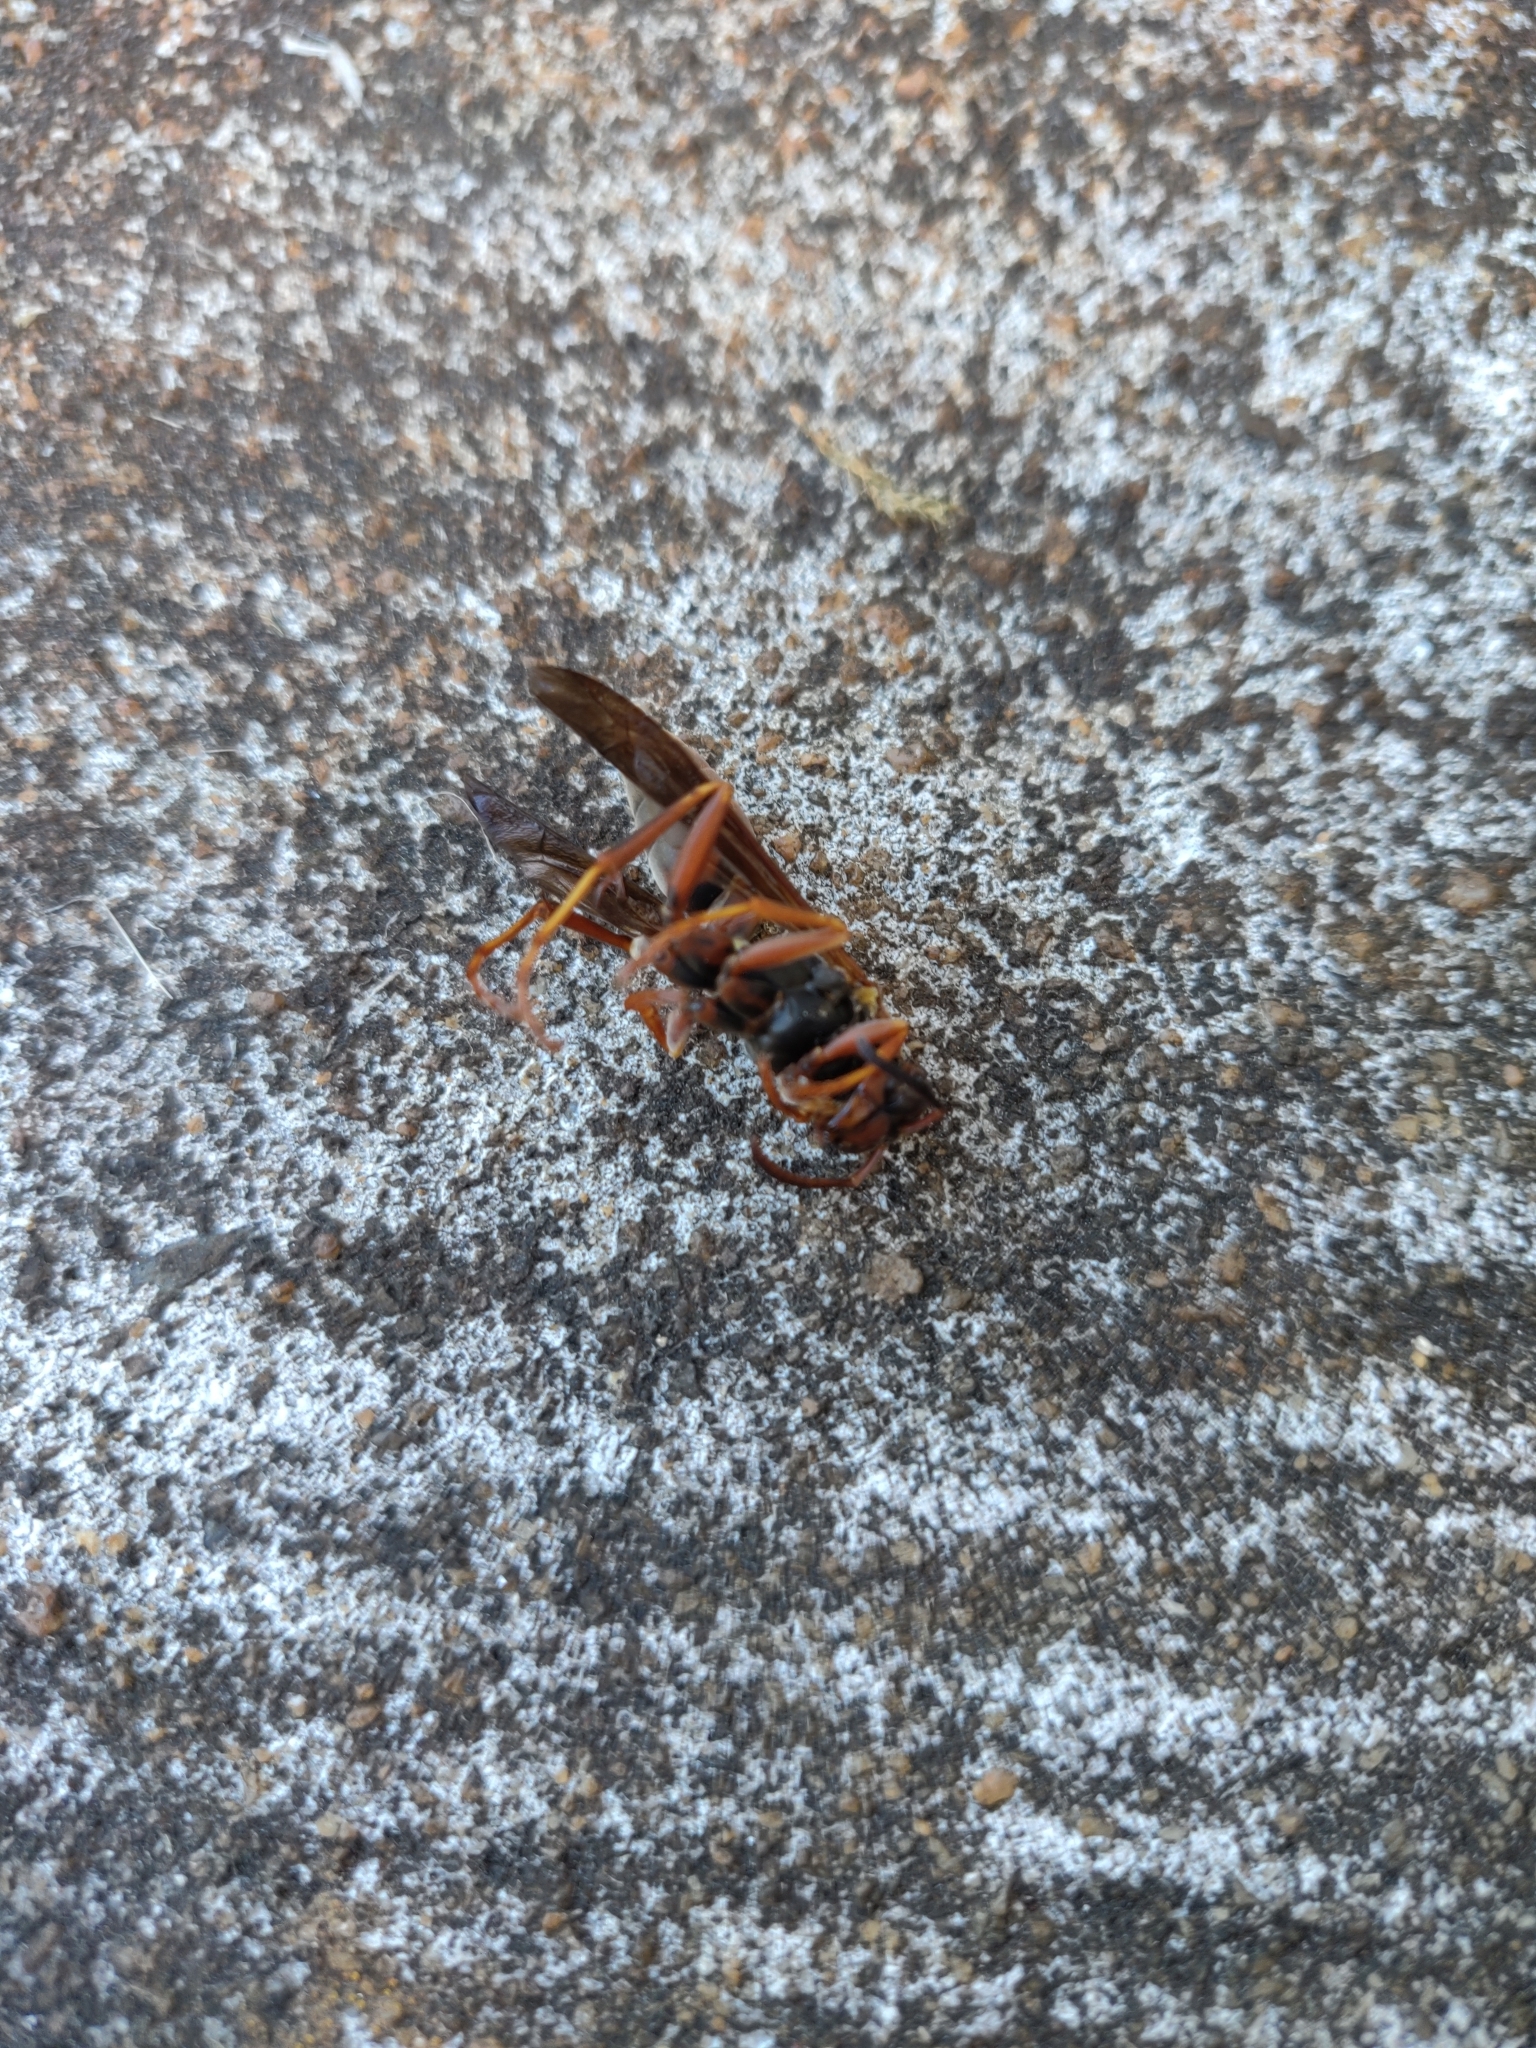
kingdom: Animalia
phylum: Arthropoda
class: Insecta
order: Hymenoptera
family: Eumenidae
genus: Polistes
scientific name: Polistes fuscatus
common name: Dark paper wasp
